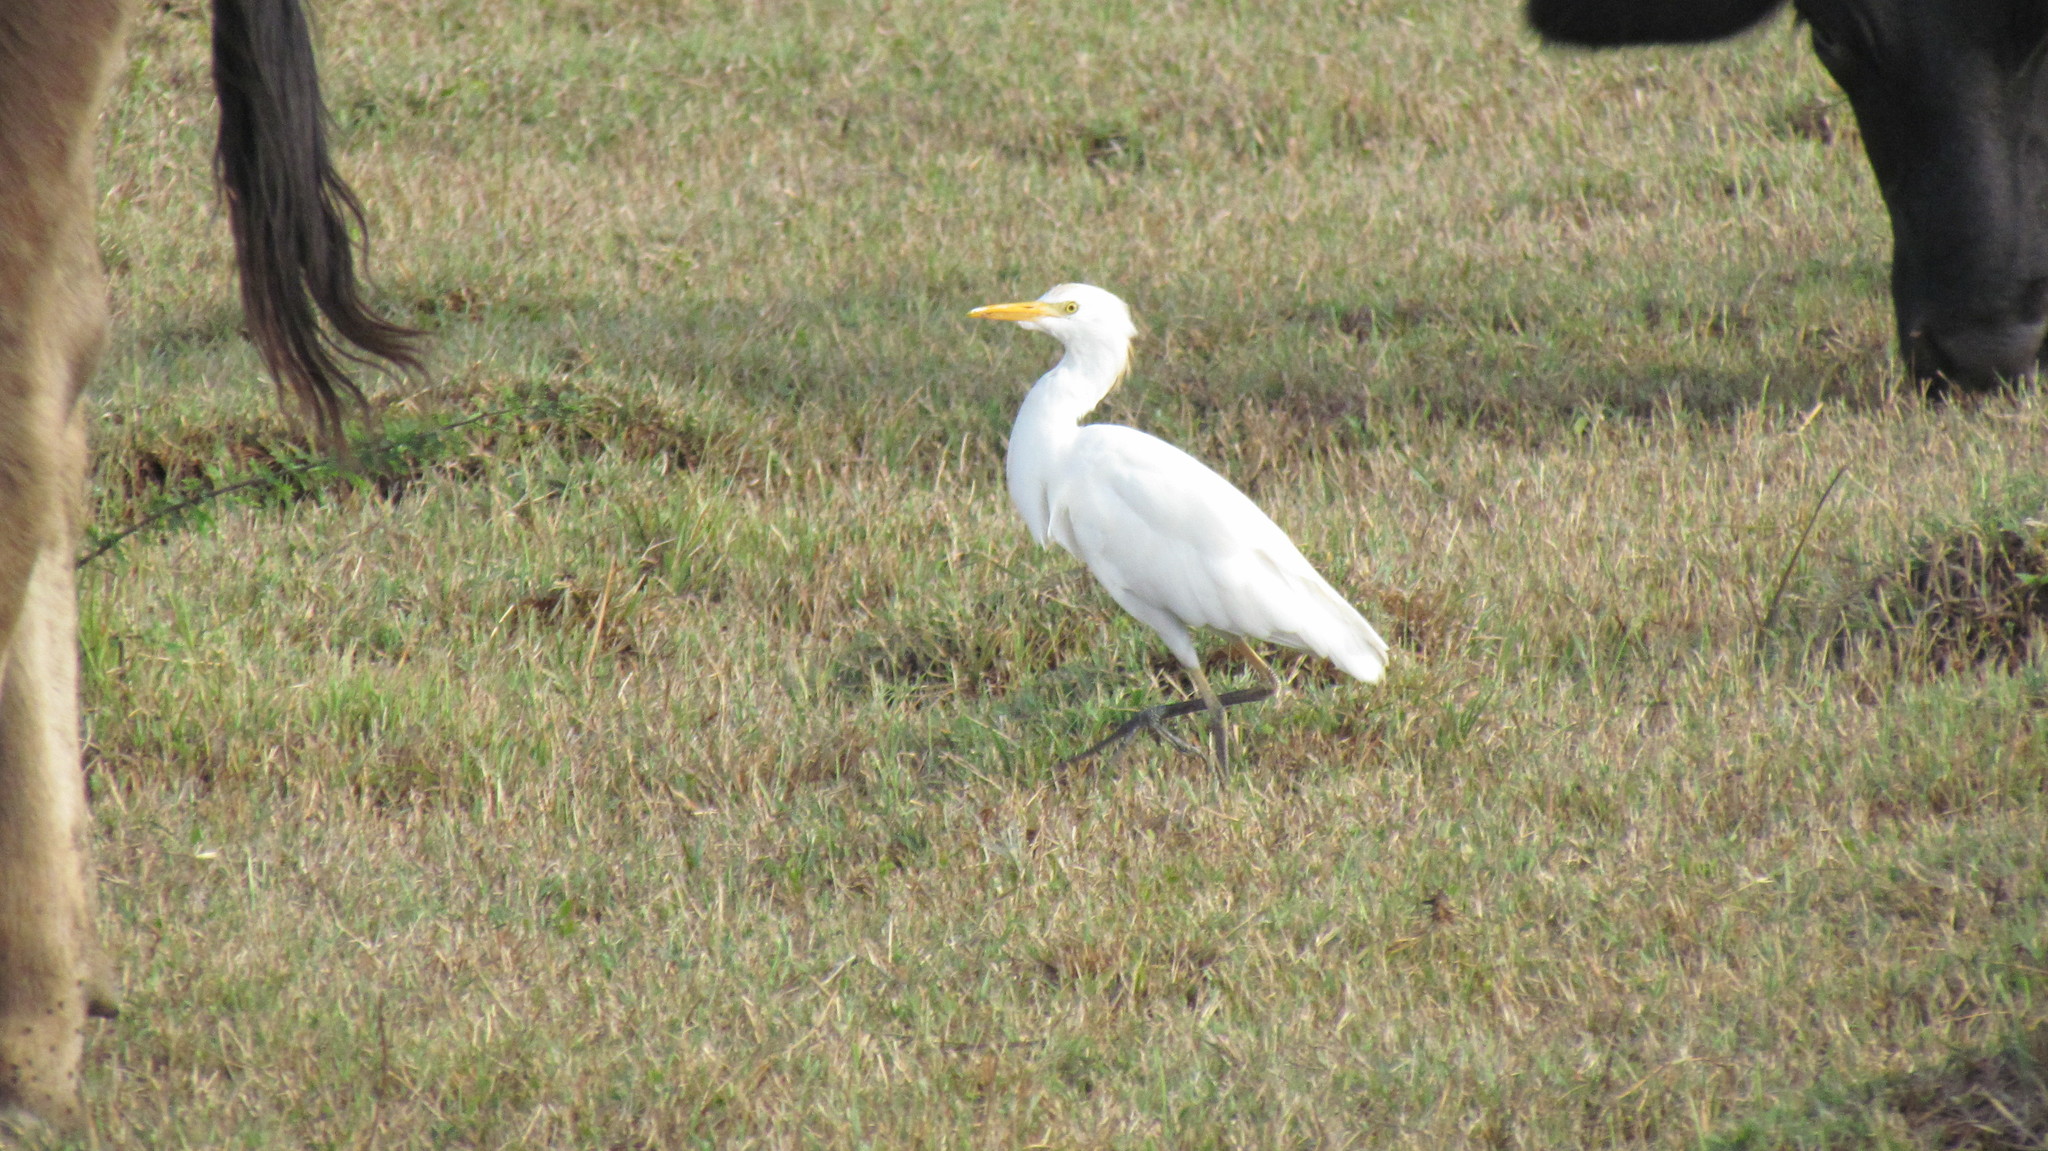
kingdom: Animalia
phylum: Chordata
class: Aves
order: Pelecaniformes
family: Ardeidae
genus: Bubulcus
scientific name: Bubulcus ibis
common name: Cattle egret
